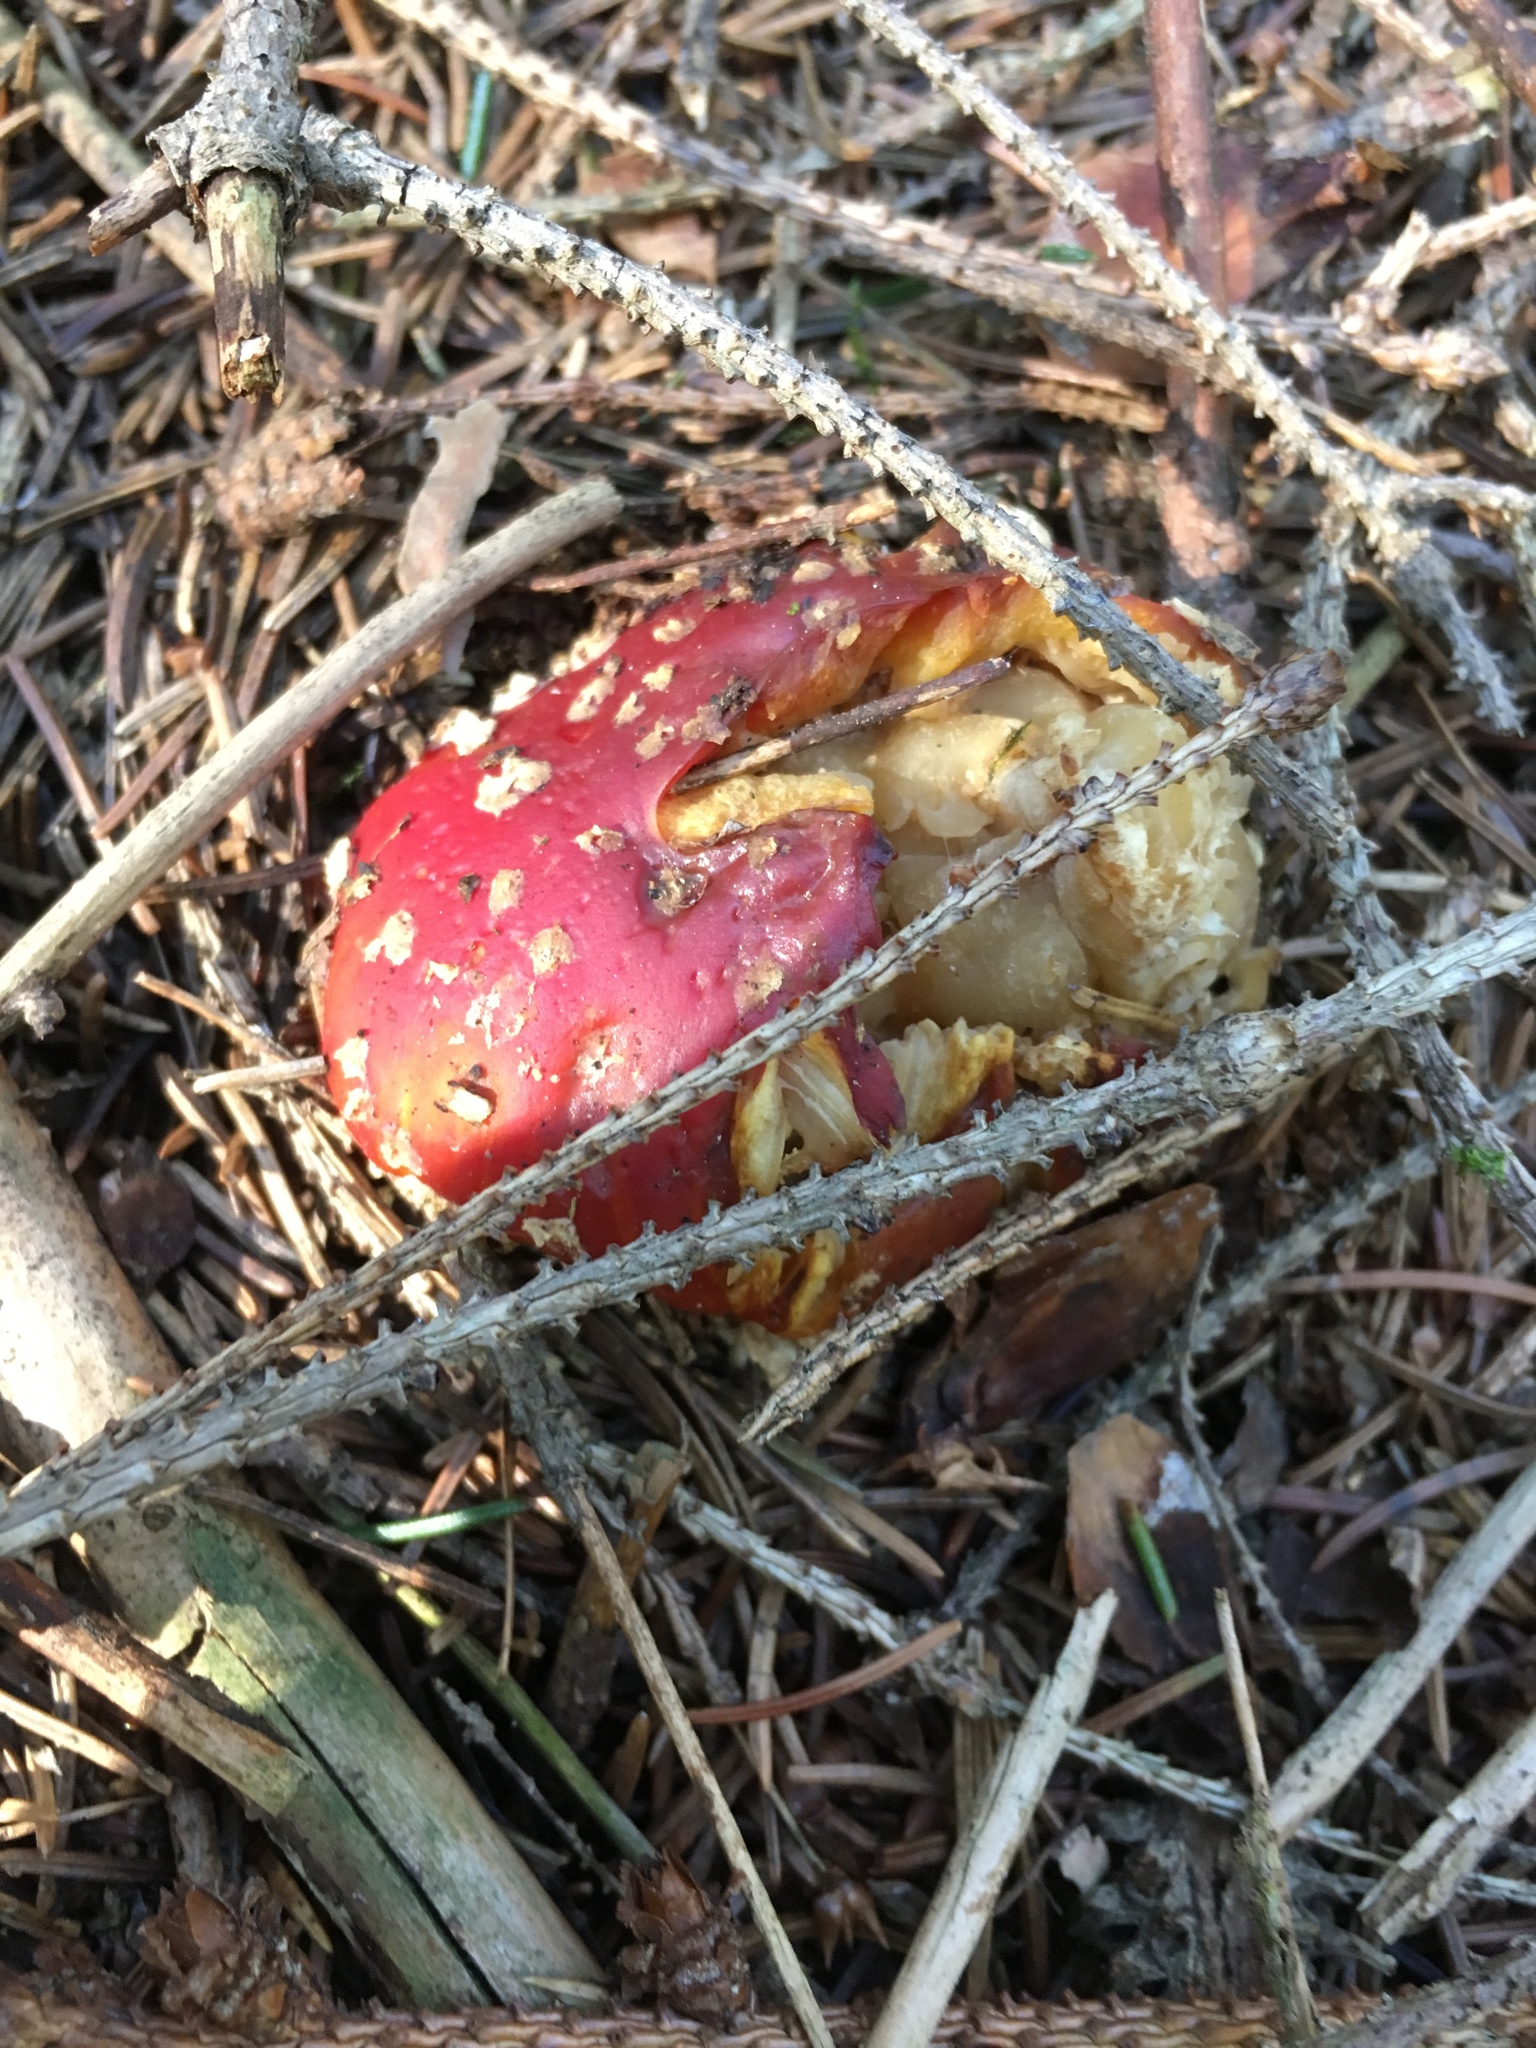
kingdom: Fungi
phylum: Basidiomycota
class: Agaricomycetes
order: Agaricales
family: Amanitaceae
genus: Amanita
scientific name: Amanita muscaria
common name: Fly agaric
